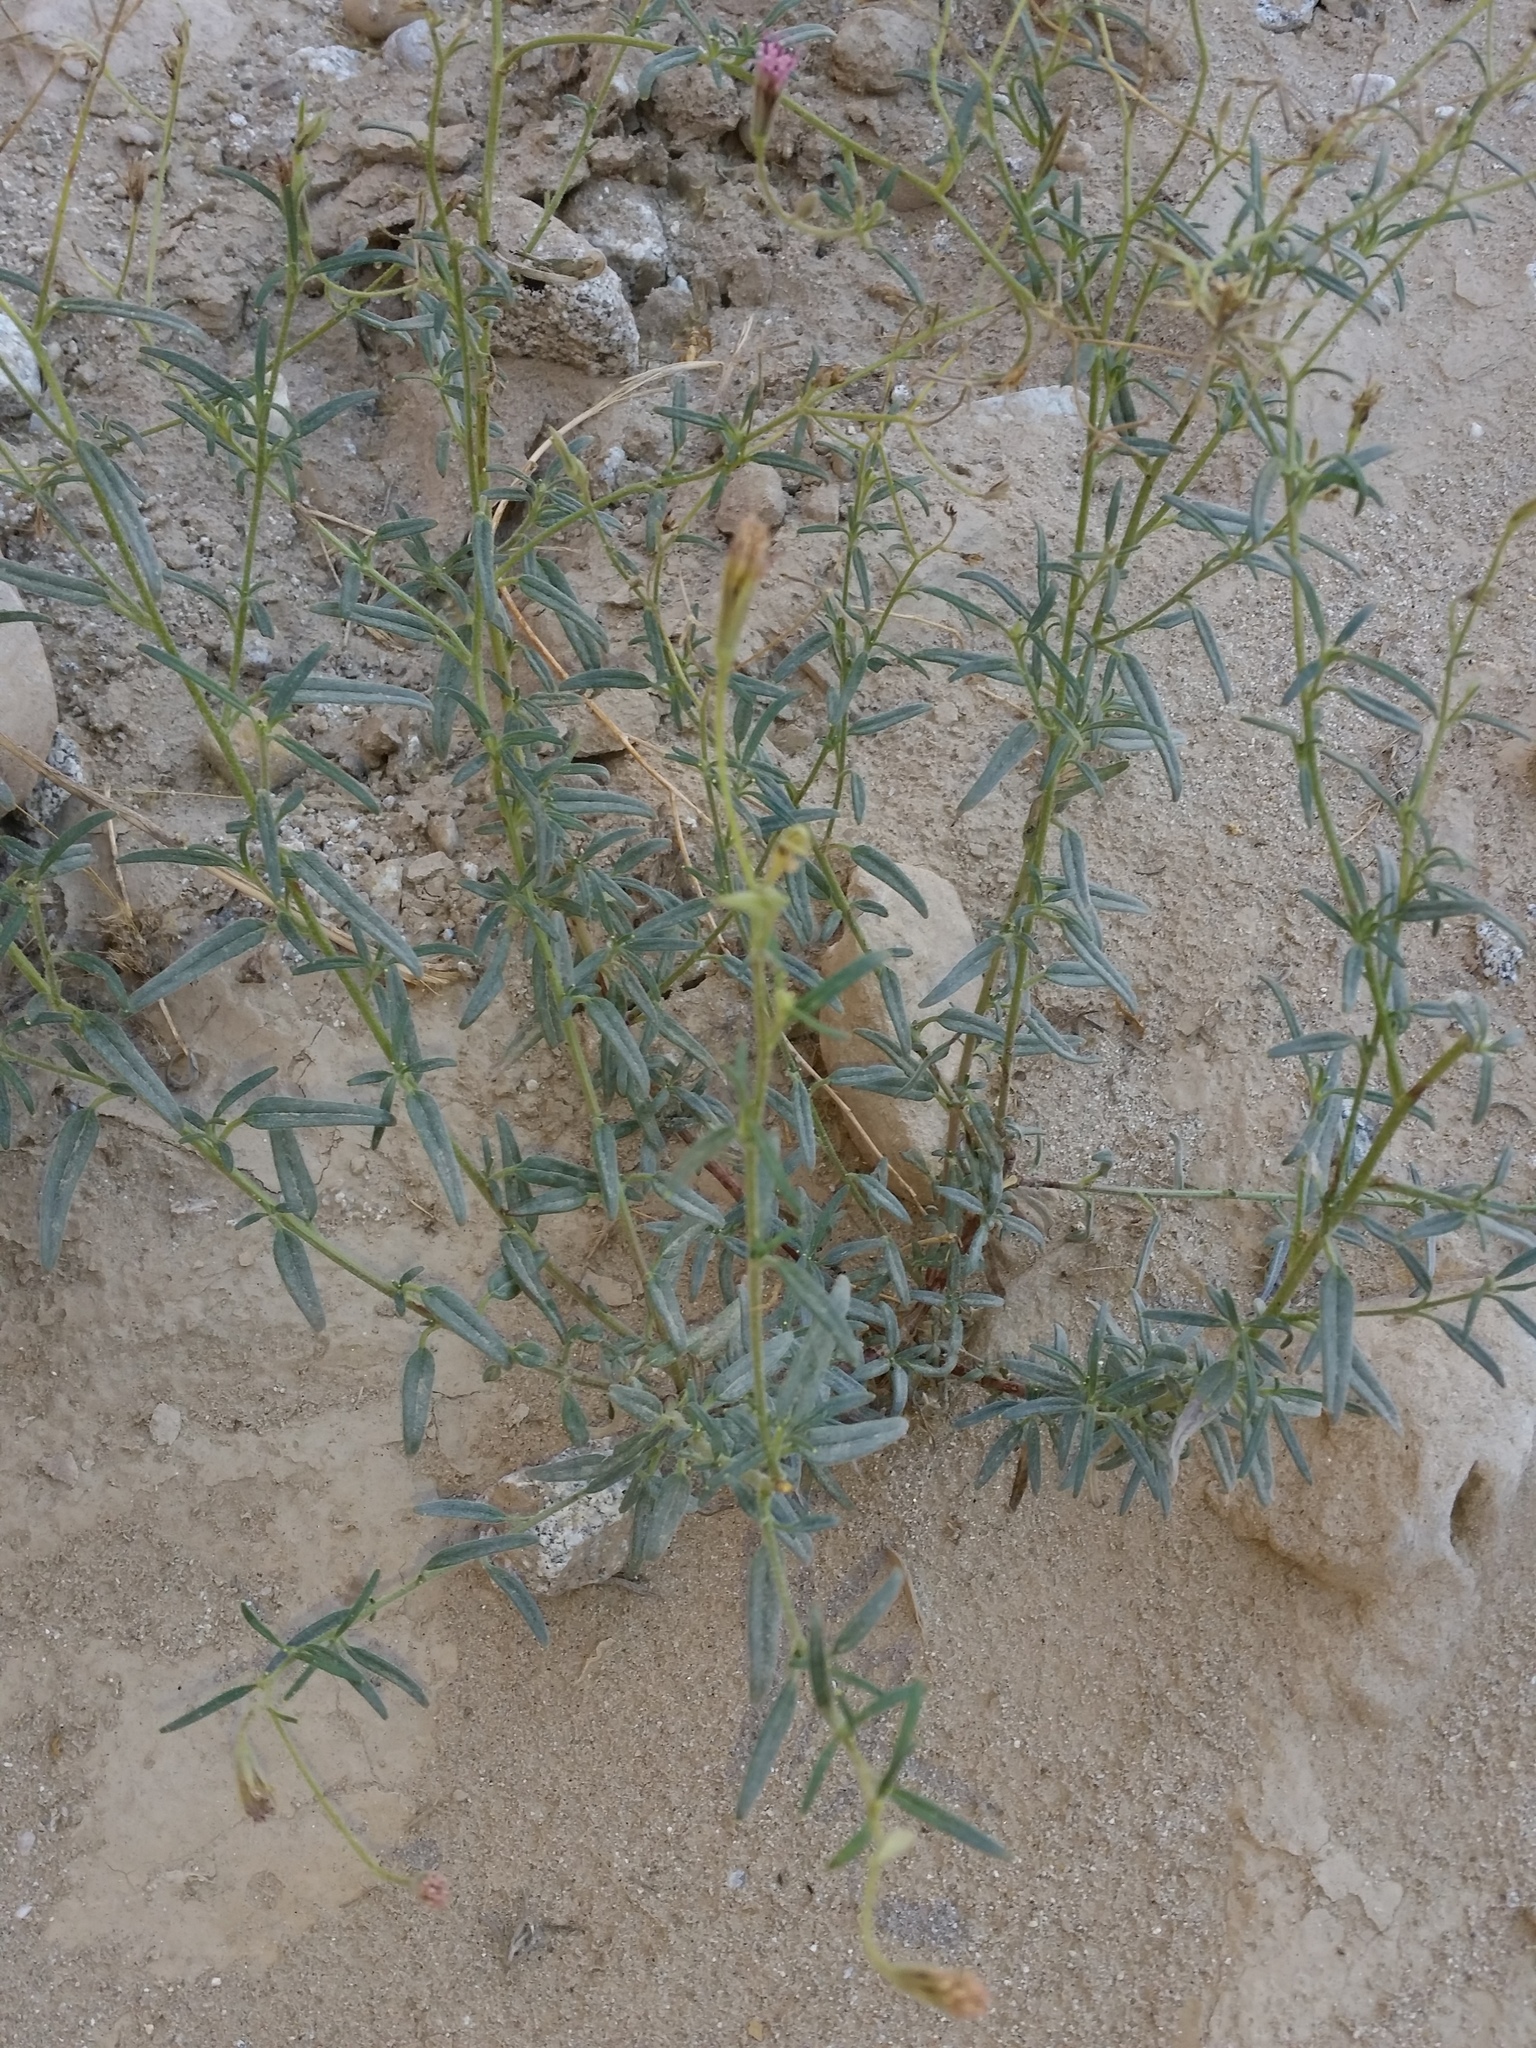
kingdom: Plantae
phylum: Tracheophyta
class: Magnoliopsida
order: Asterales
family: Asteraceae
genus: Palafoxia
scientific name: Palafoxia arida
